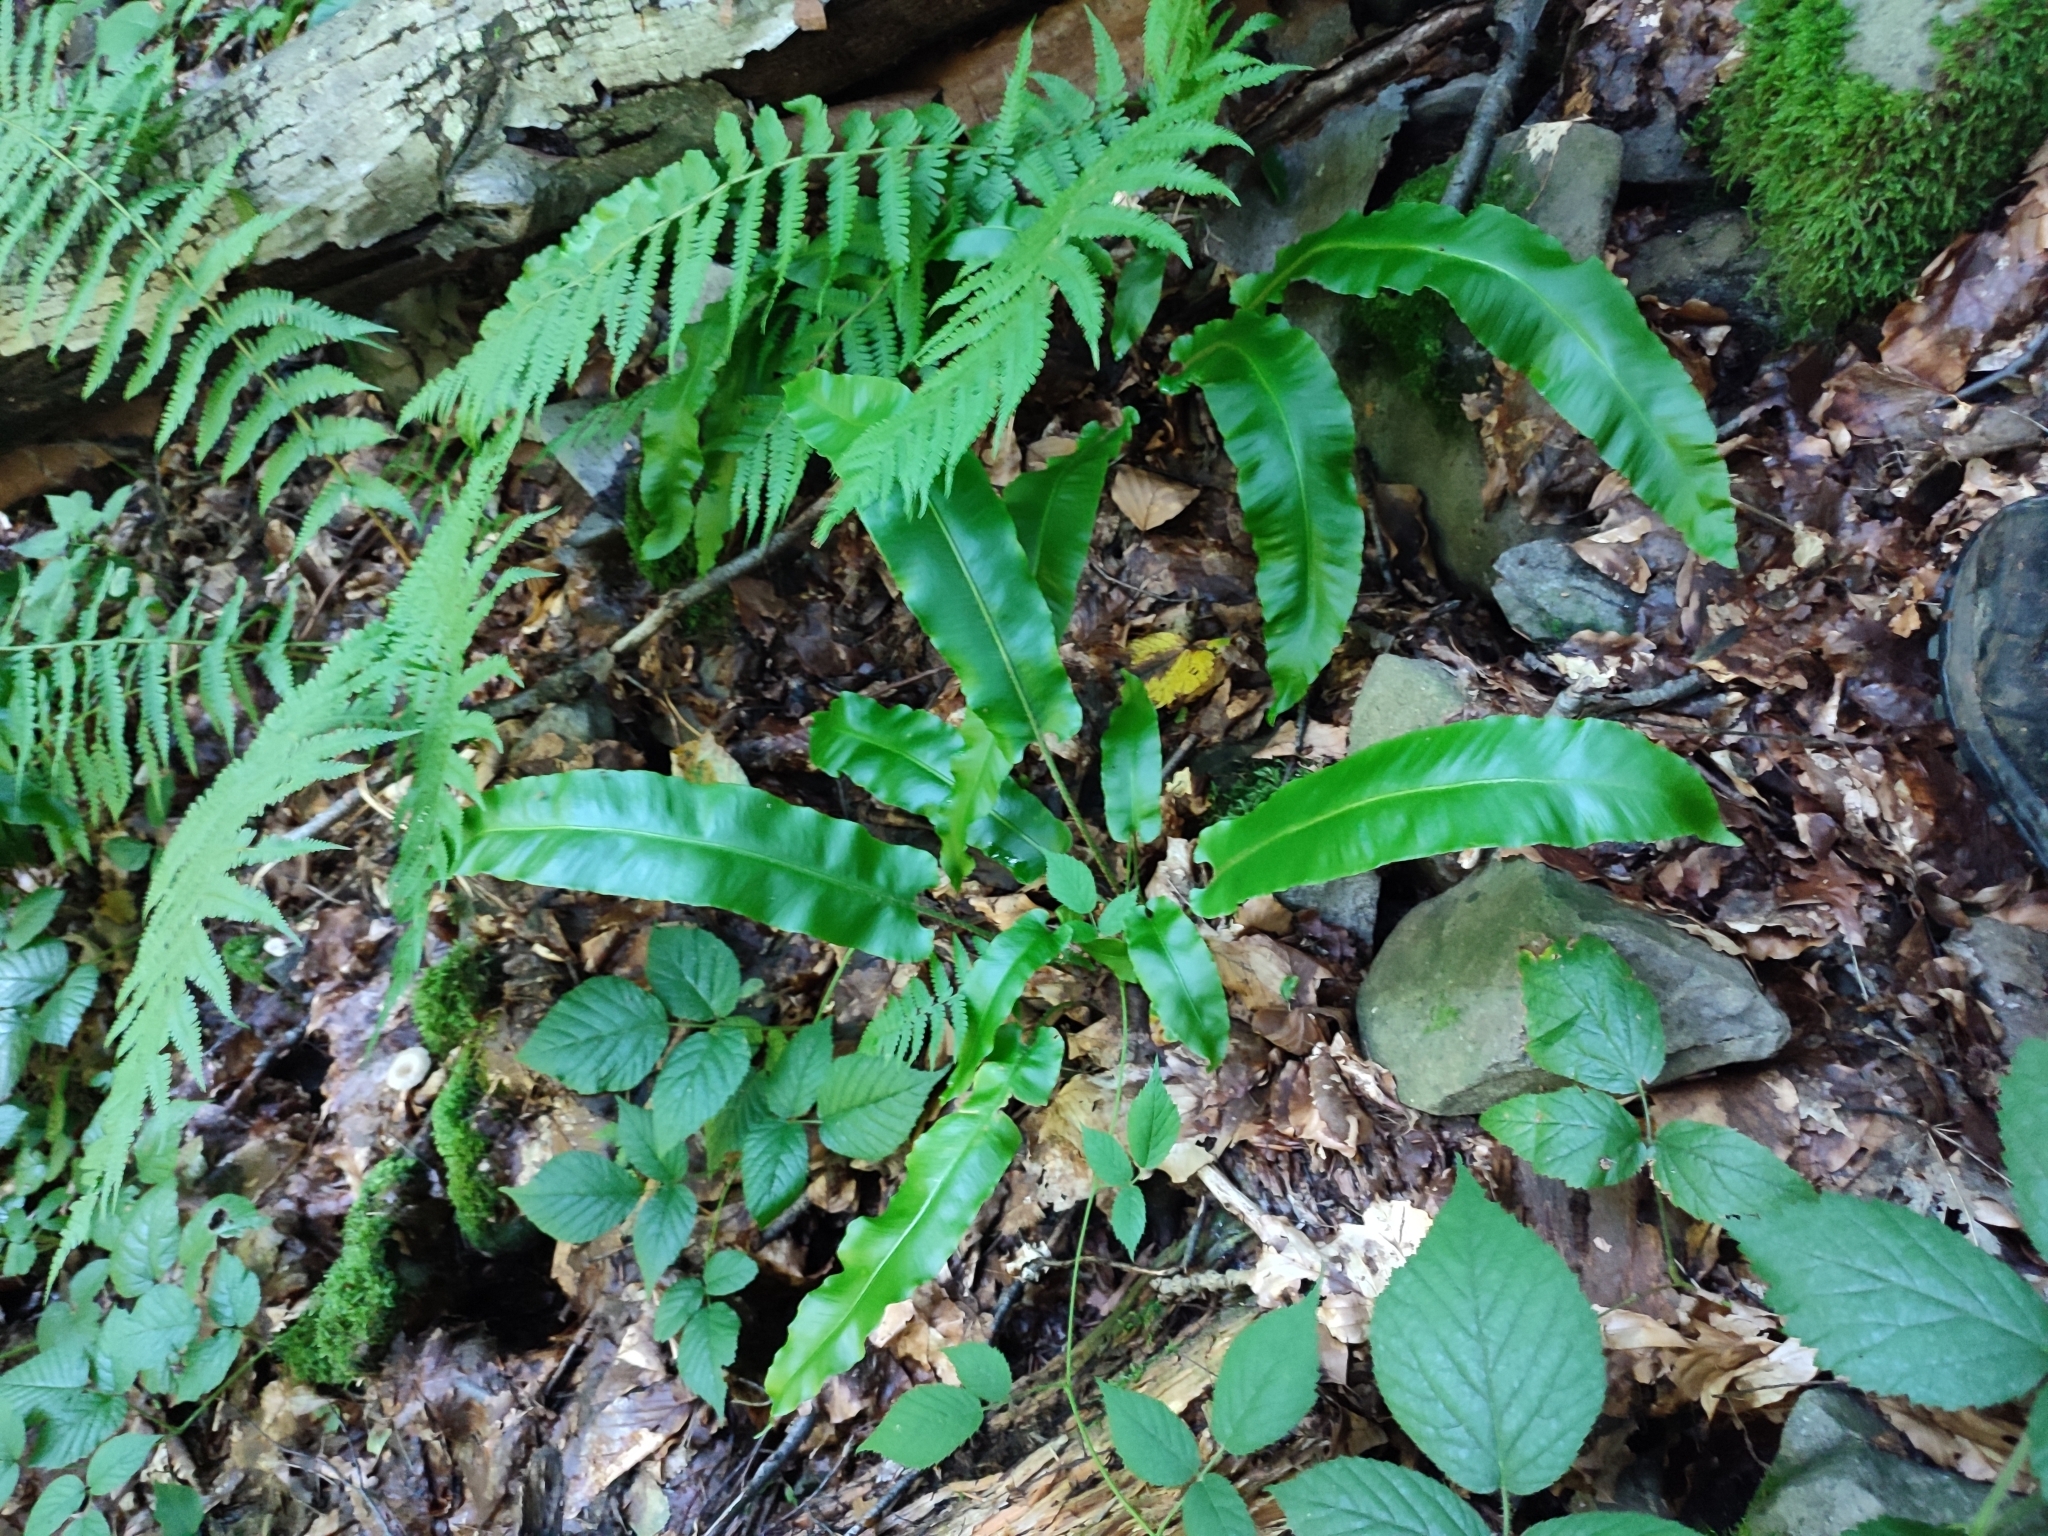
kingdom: Plantae
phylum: Tracheophyta
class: Polypodiopsida
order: Polypodiales
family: Aspleniaceae
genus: Asplenium
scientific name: Asplenium scolopendrium
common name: Hart's-tongue fern
